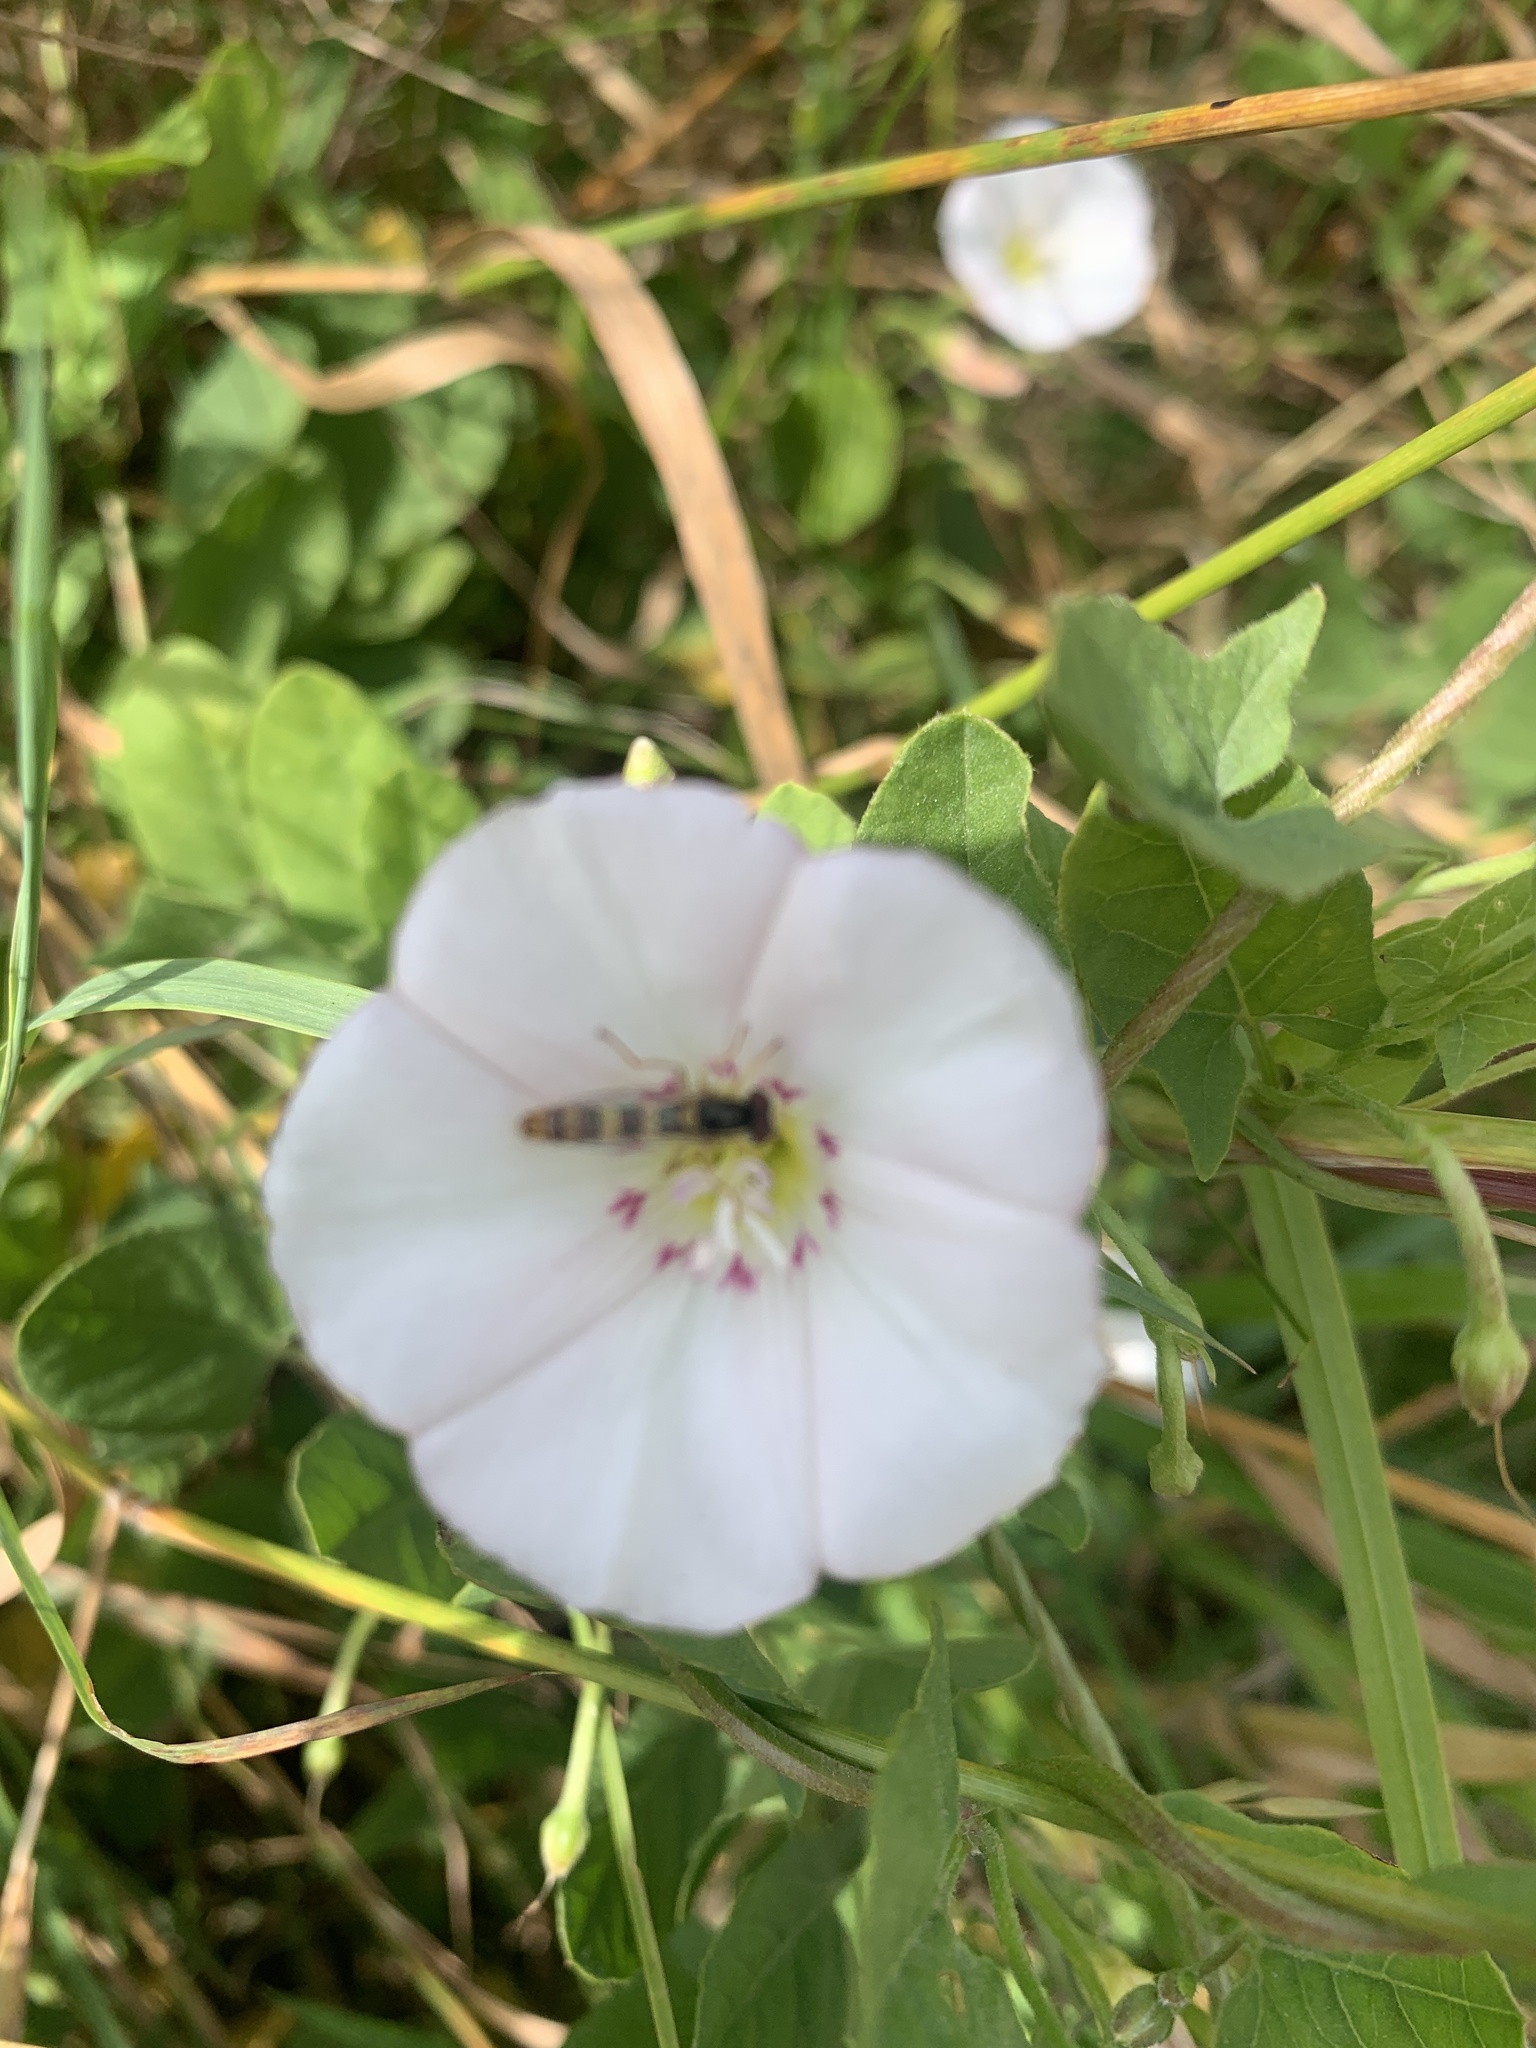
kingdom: Animalia
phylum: Arthropoda
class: Insecta
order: Diptera
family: Syrphidae
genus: Sphaerophoria
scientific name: Sphaerophoria scripta
